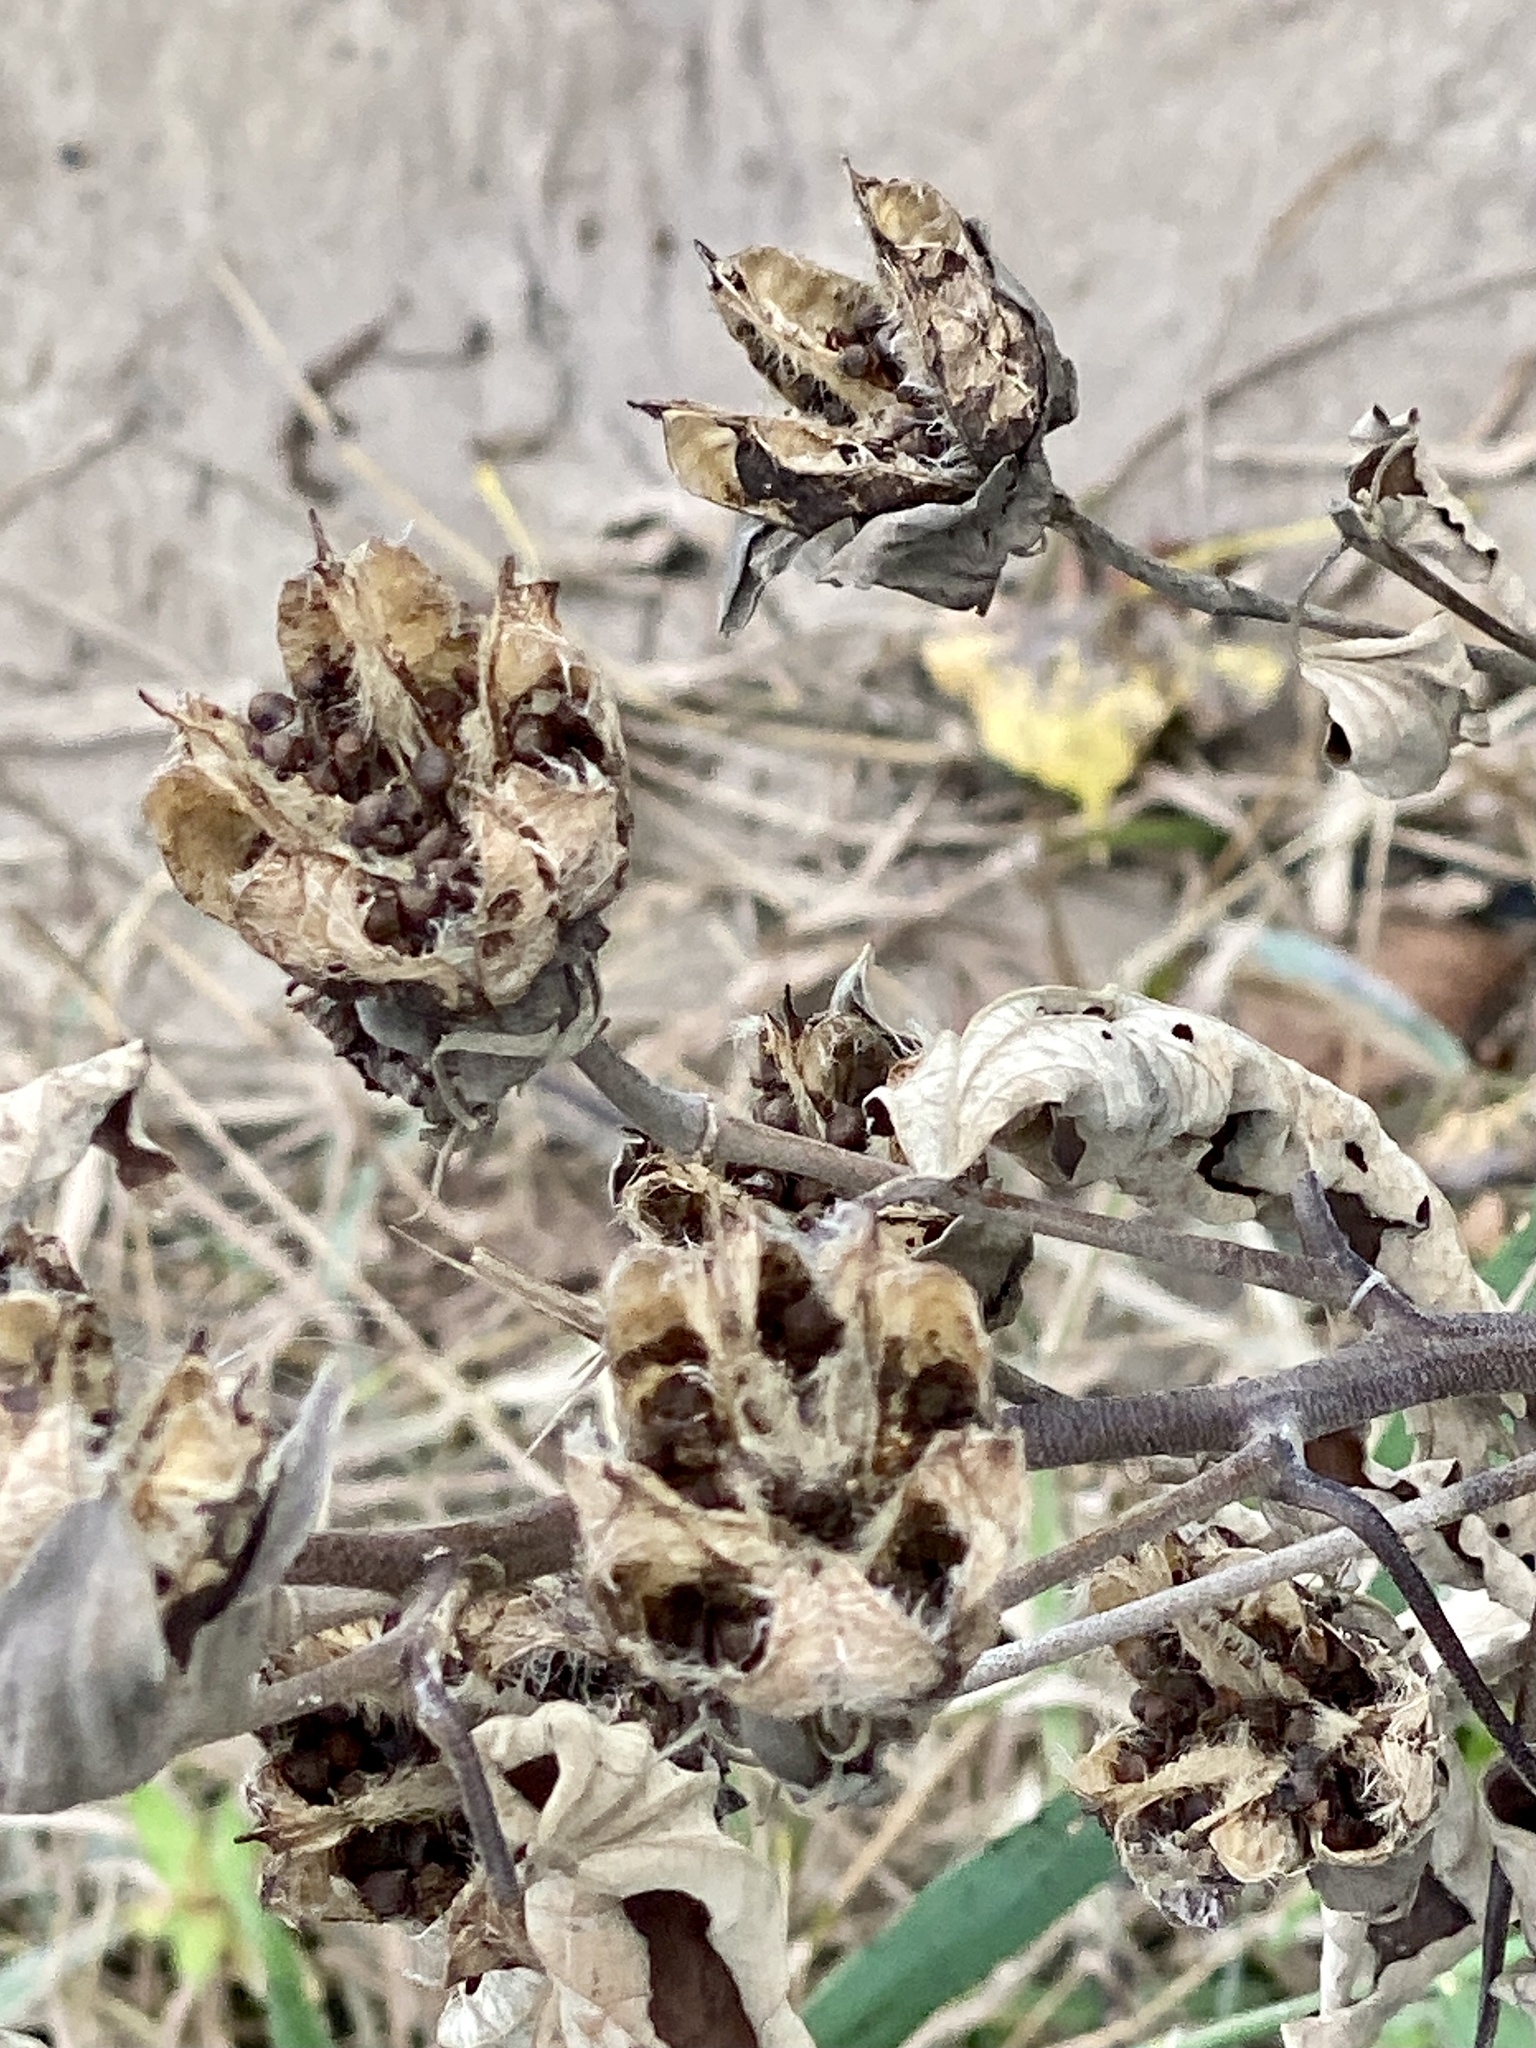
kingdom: Plantae
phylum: Tracheophyta
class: Magnoliopsida
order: Malvales
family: Malvaceae
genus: Hibiscus
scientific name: Hibiscus moscheutos
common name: Common rose-mallow
